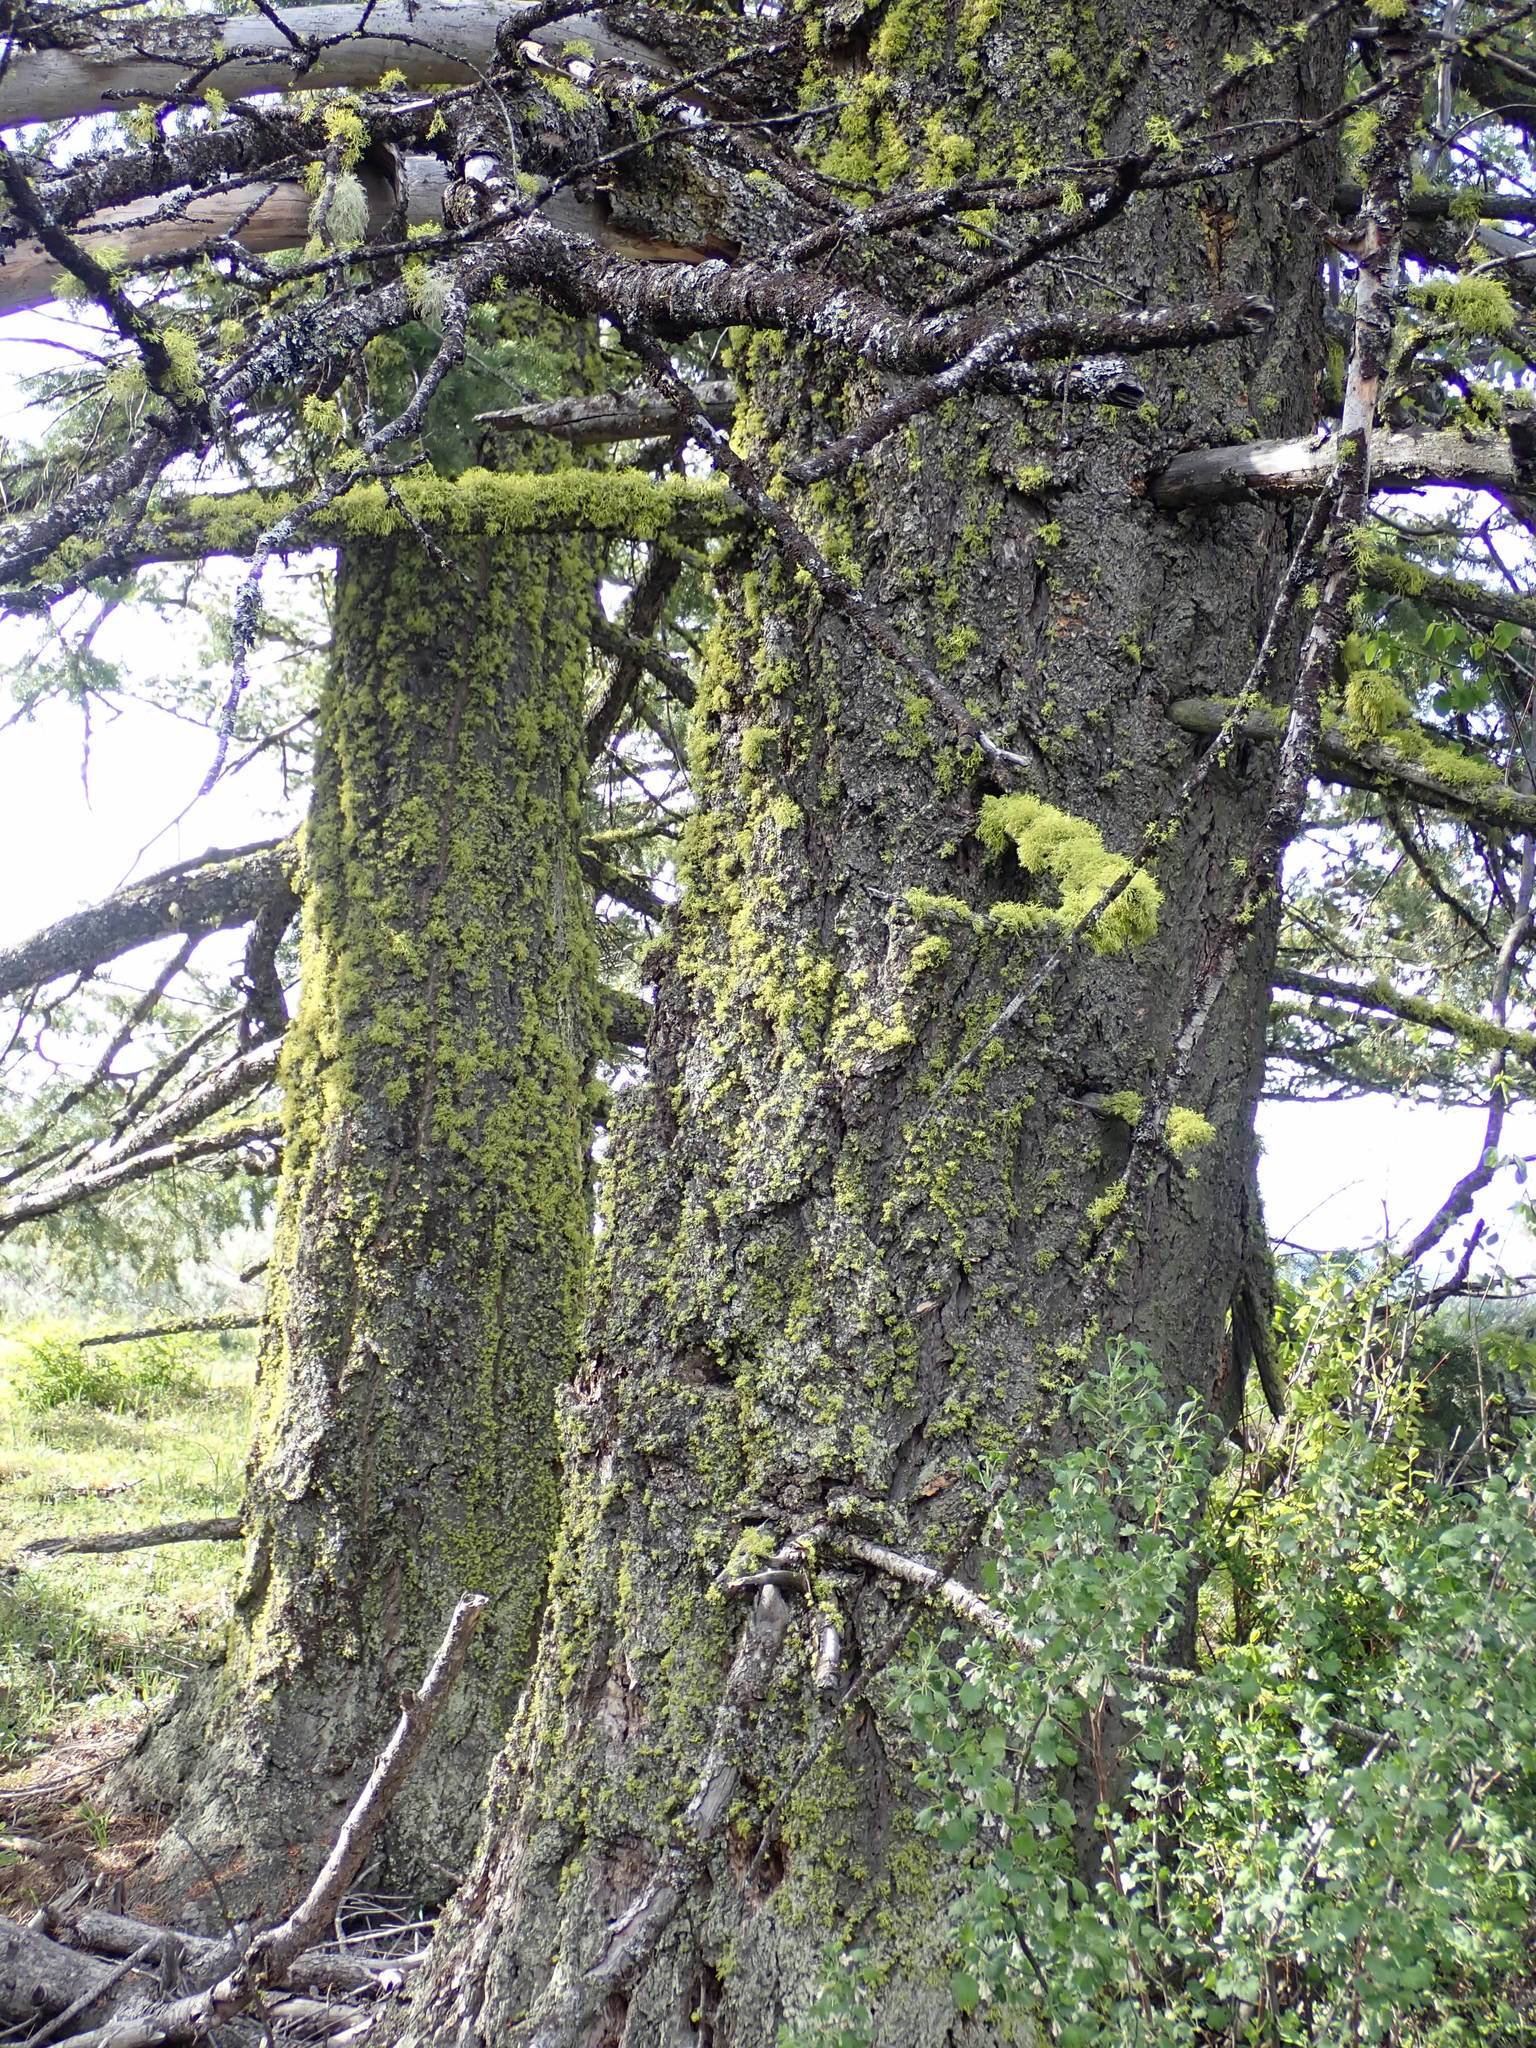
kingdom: Plantae
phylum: Tracheophyta
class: Pinopsida
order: Pinales
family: Pinaceae
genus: Pseudotsuga
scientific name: Pseudotsuga menziesii
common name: Douglas fir
